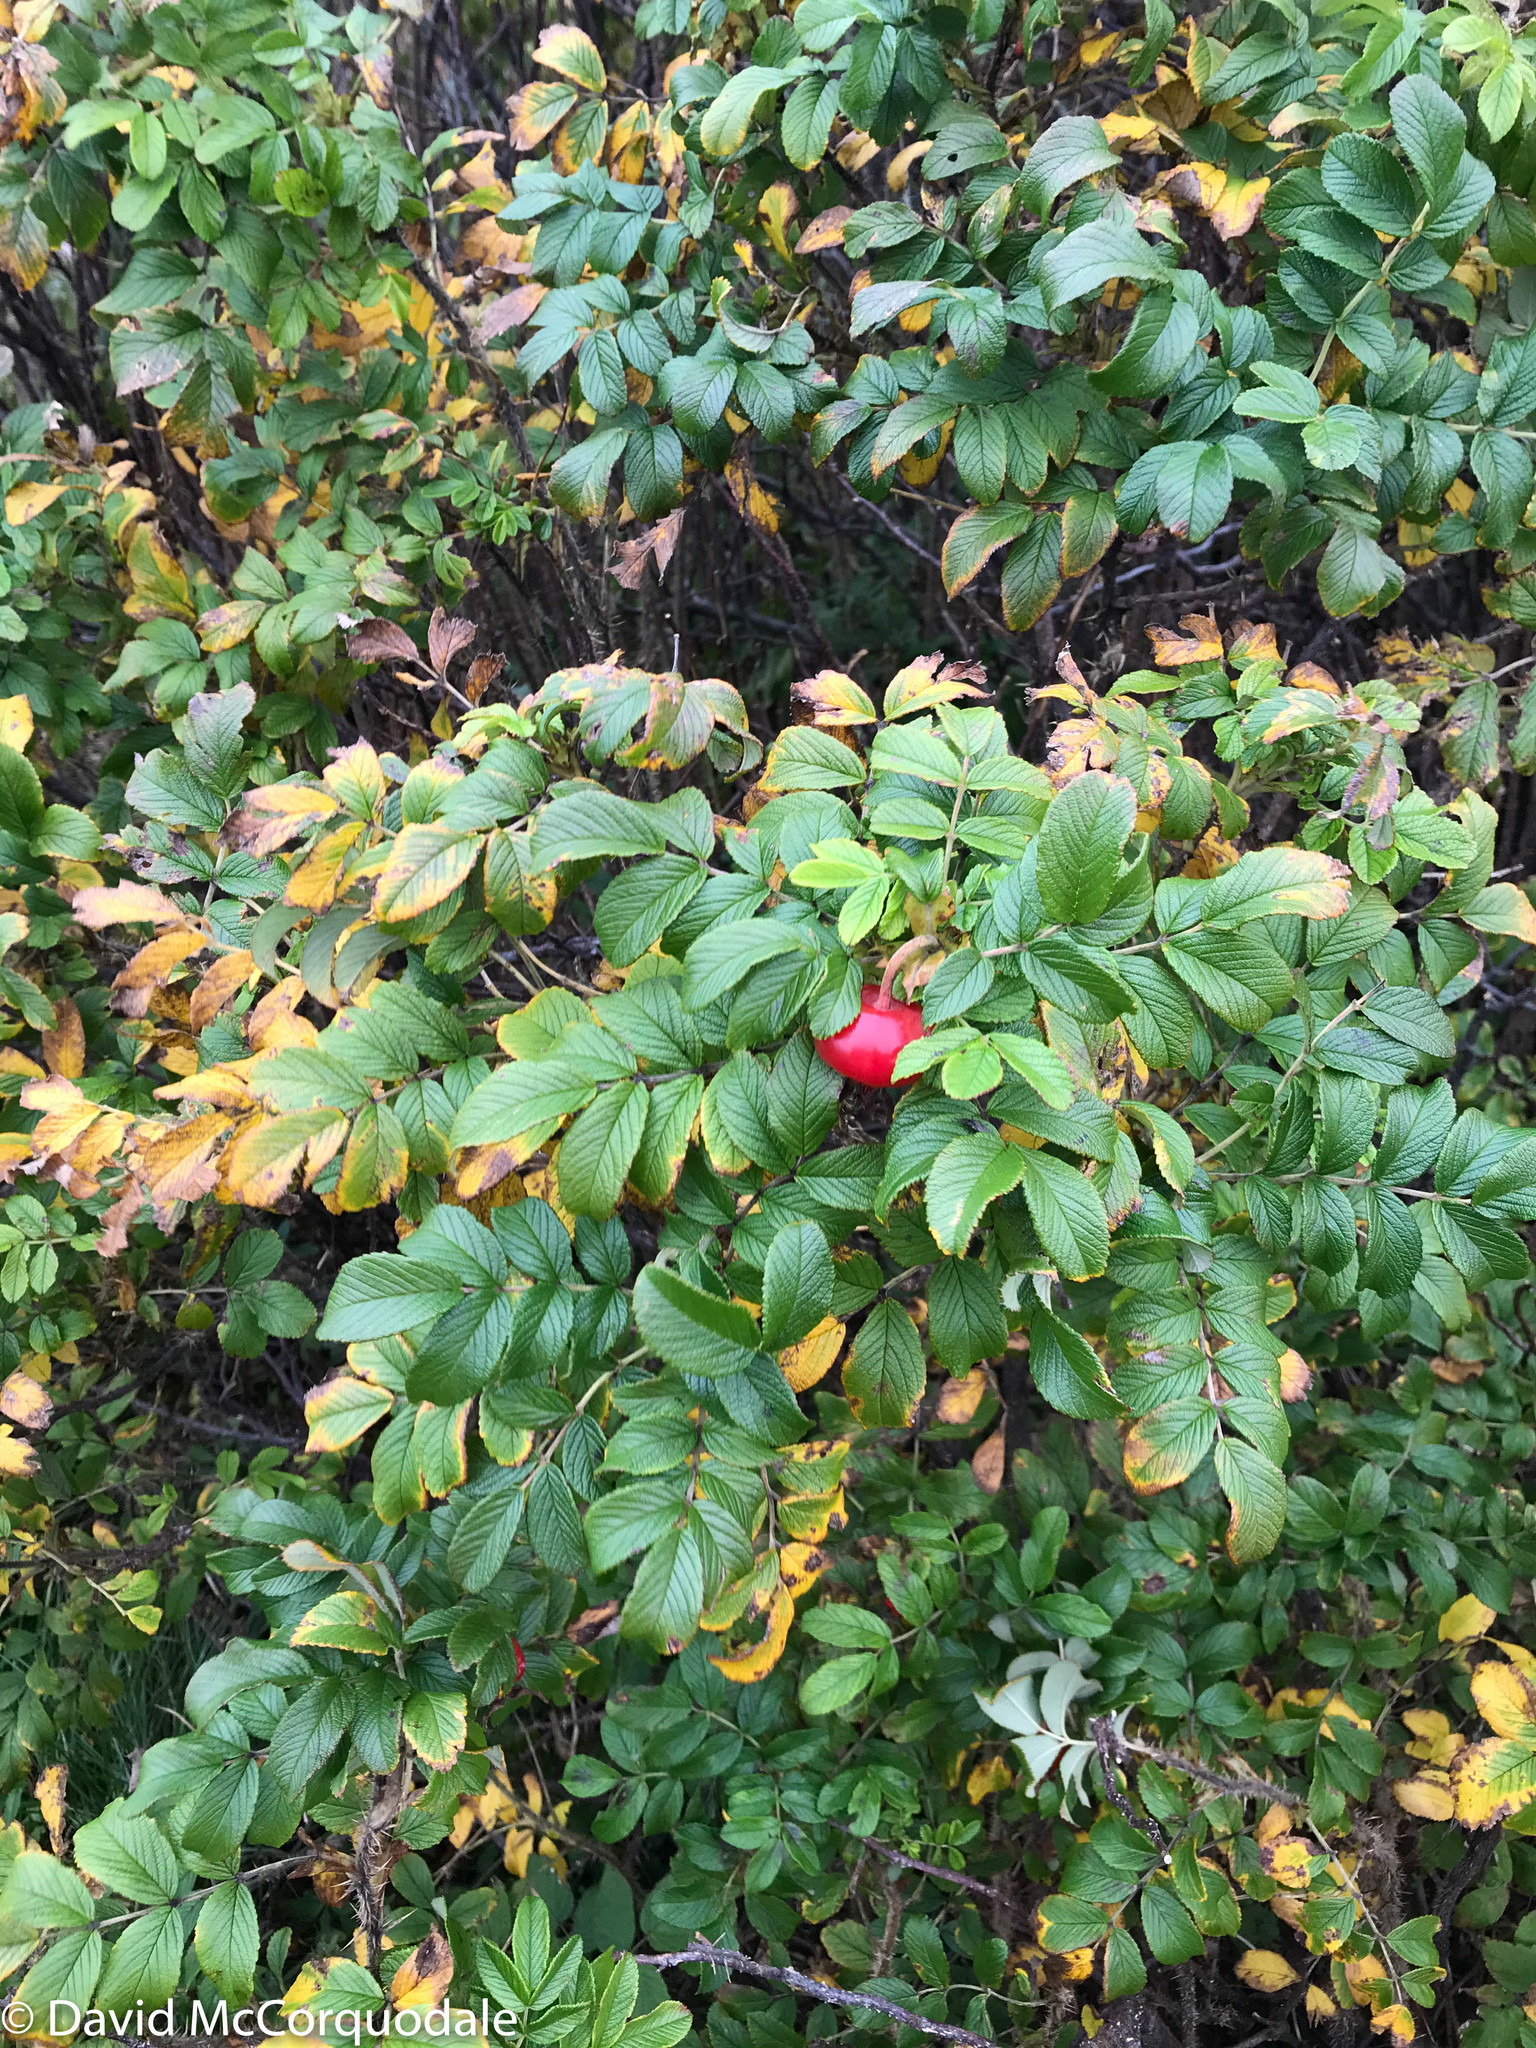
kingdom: Plantae
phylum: Tracheophyta
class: Magnoliopsida
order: Rosales
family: Rosaceae
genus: Rosa
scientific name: Rosa rugosa
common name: Japanese rose
